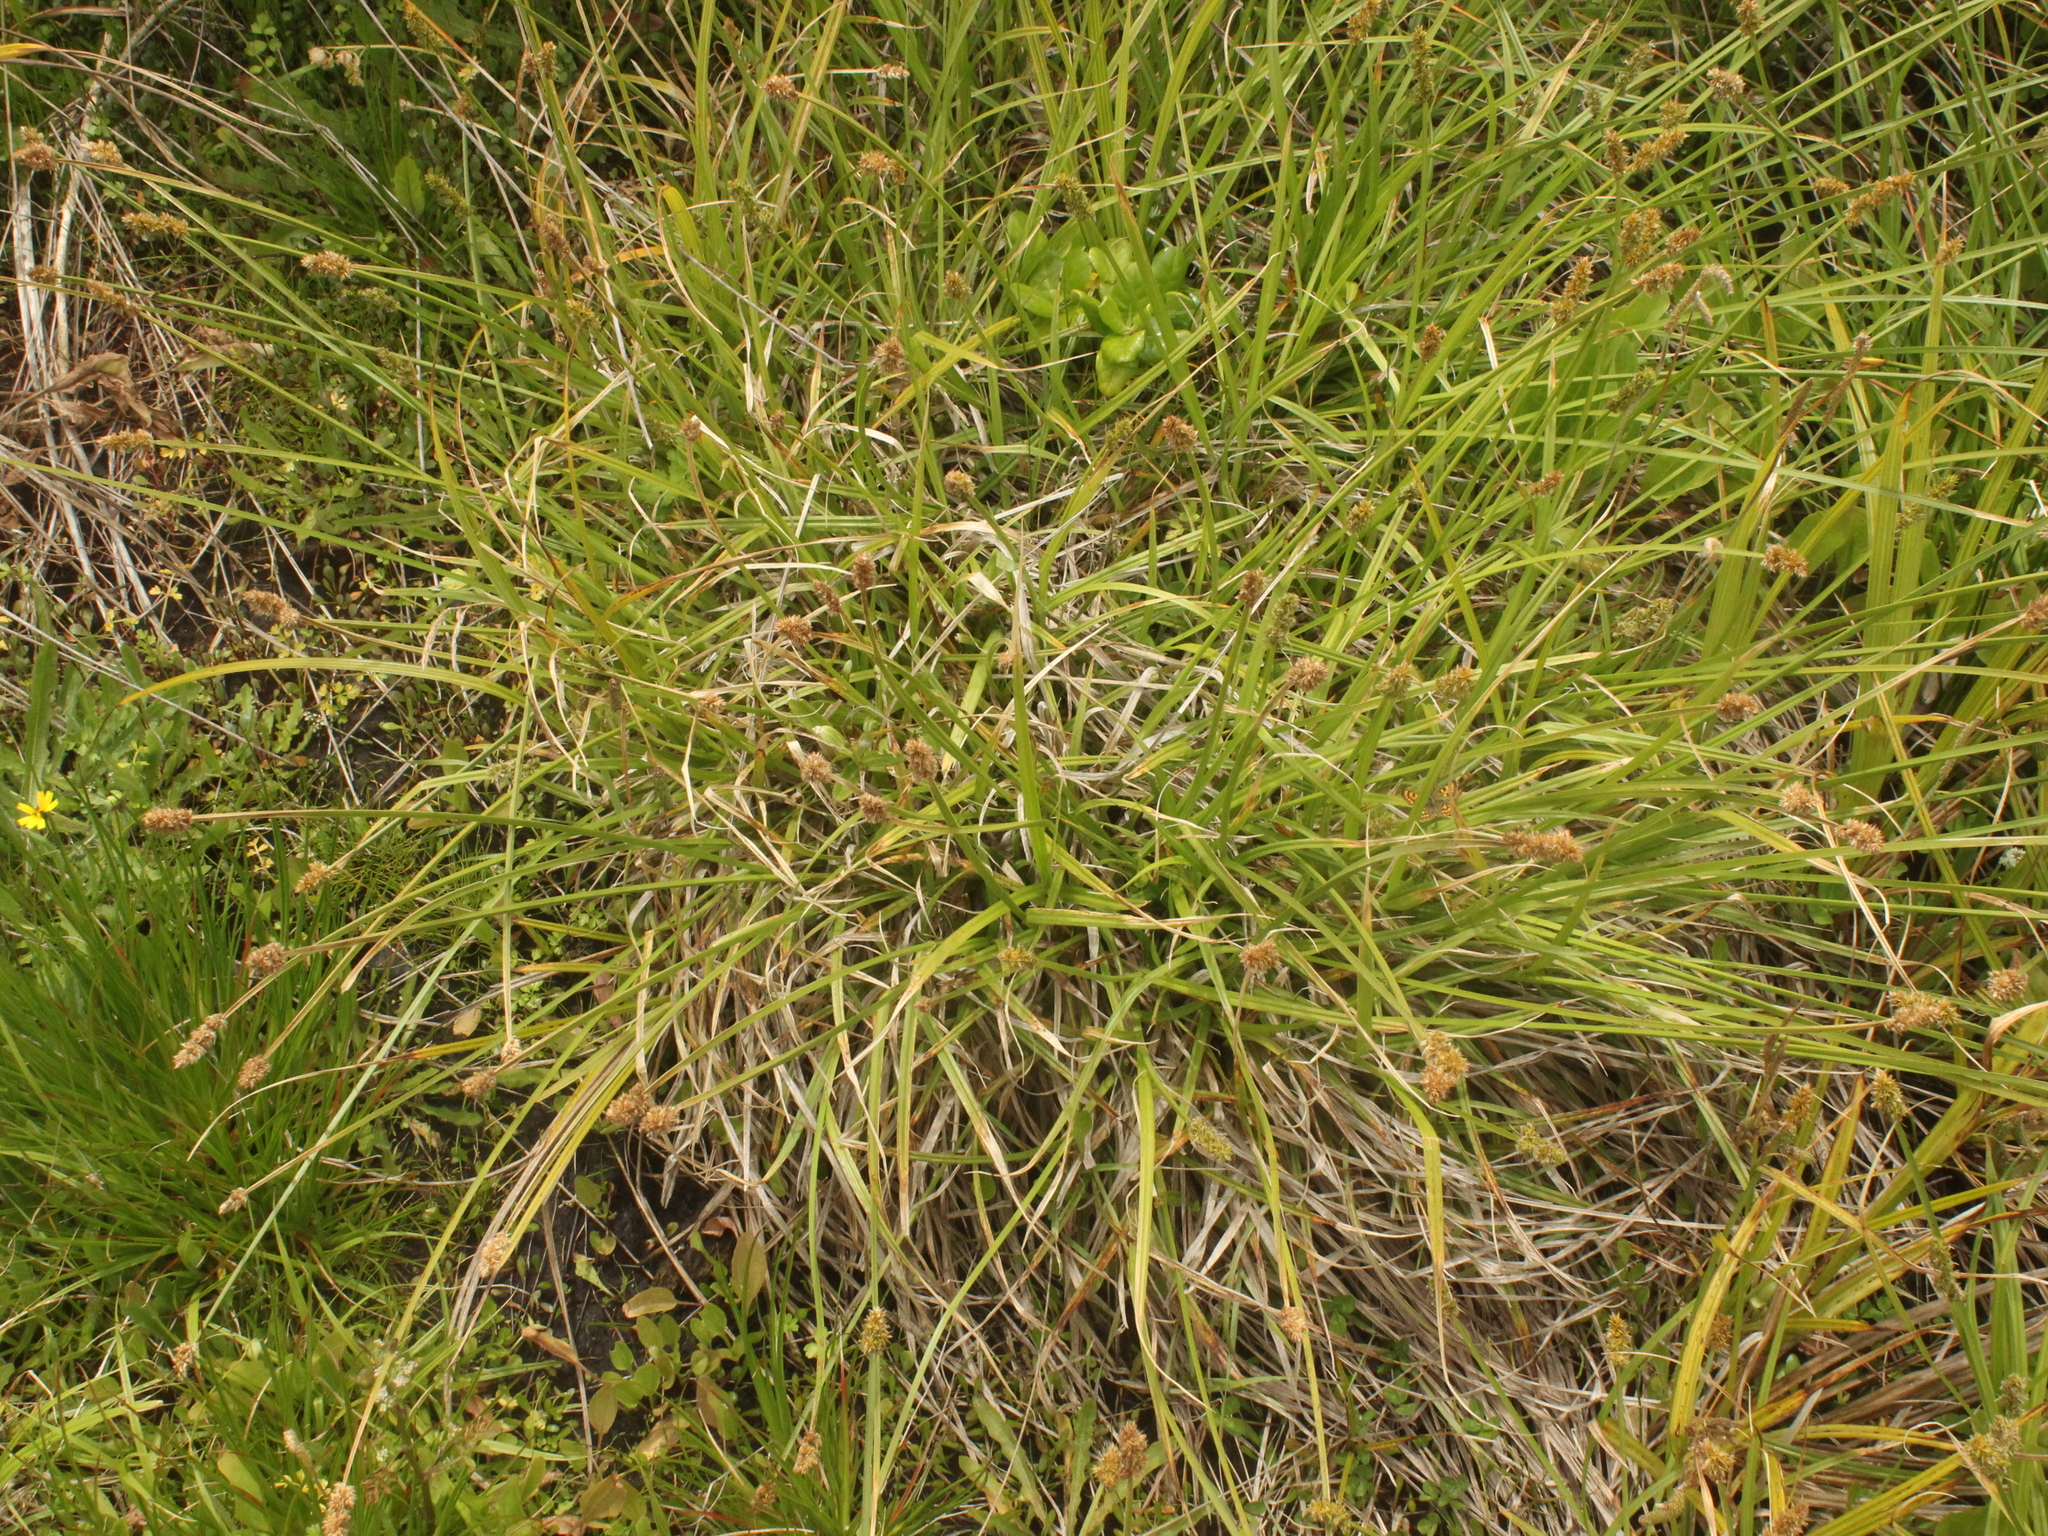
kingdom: Plantae
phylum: Tracheophyta
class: Liliopsida
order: Poales
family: Cyperaceae
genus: Carex
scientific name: Carex otrubae
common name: False fox-sedge
